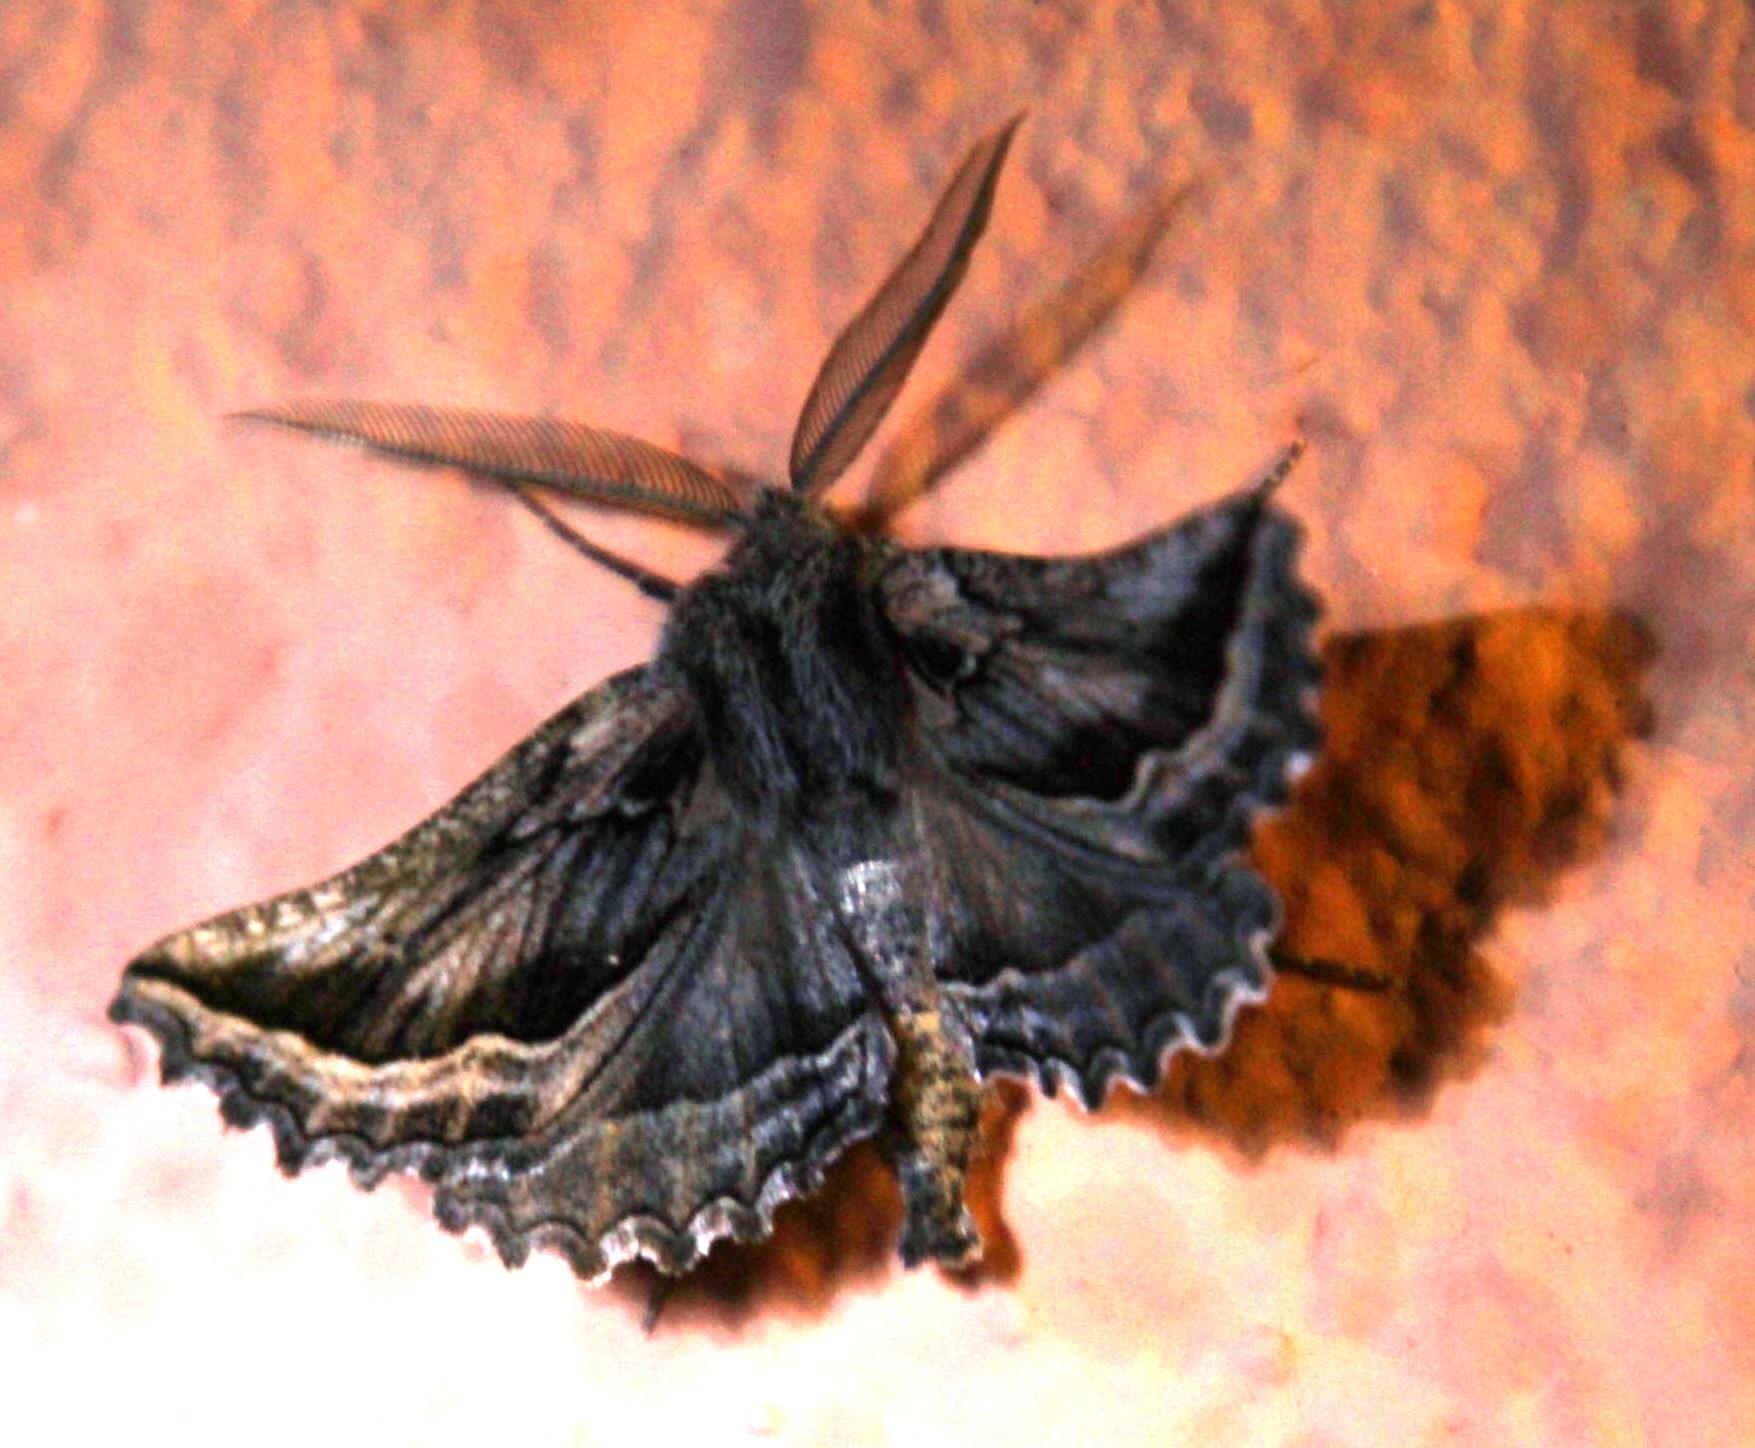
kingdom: Animalia
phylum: Arthropoda
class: Insecta
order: Lepidoptera
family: Geometridae
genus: Axiodes
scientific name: Axiodes
